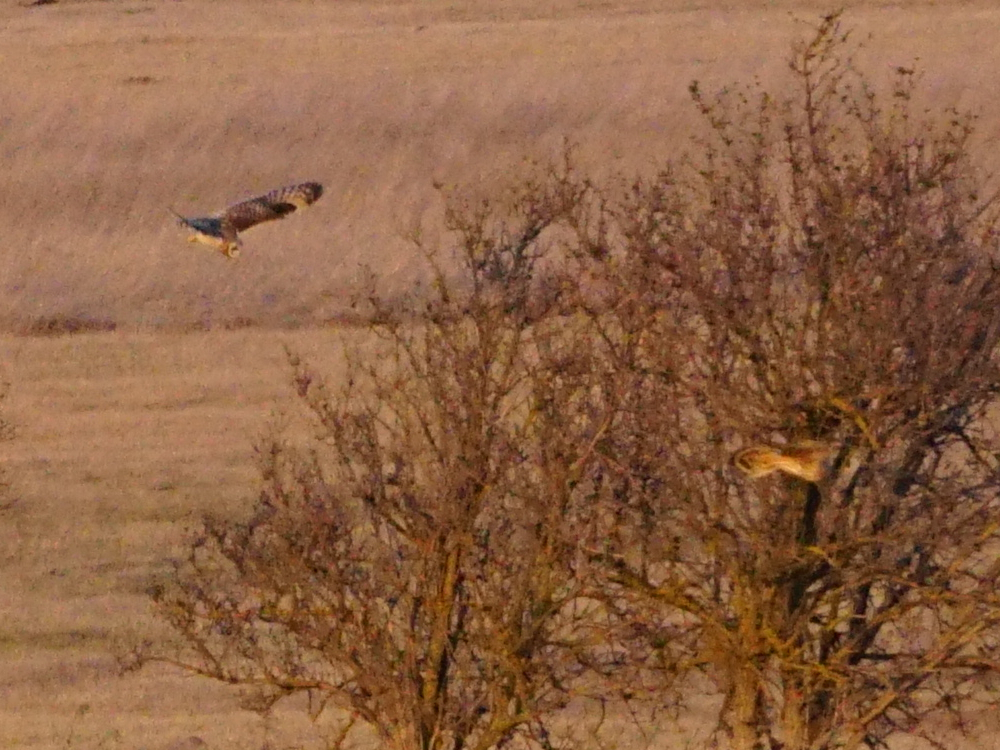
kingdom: Animalia
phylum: Chordata
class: Aves
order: Strigiformes
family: Strigidae
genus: Asio
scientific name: Asio flammeus
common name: Short-eared owl
